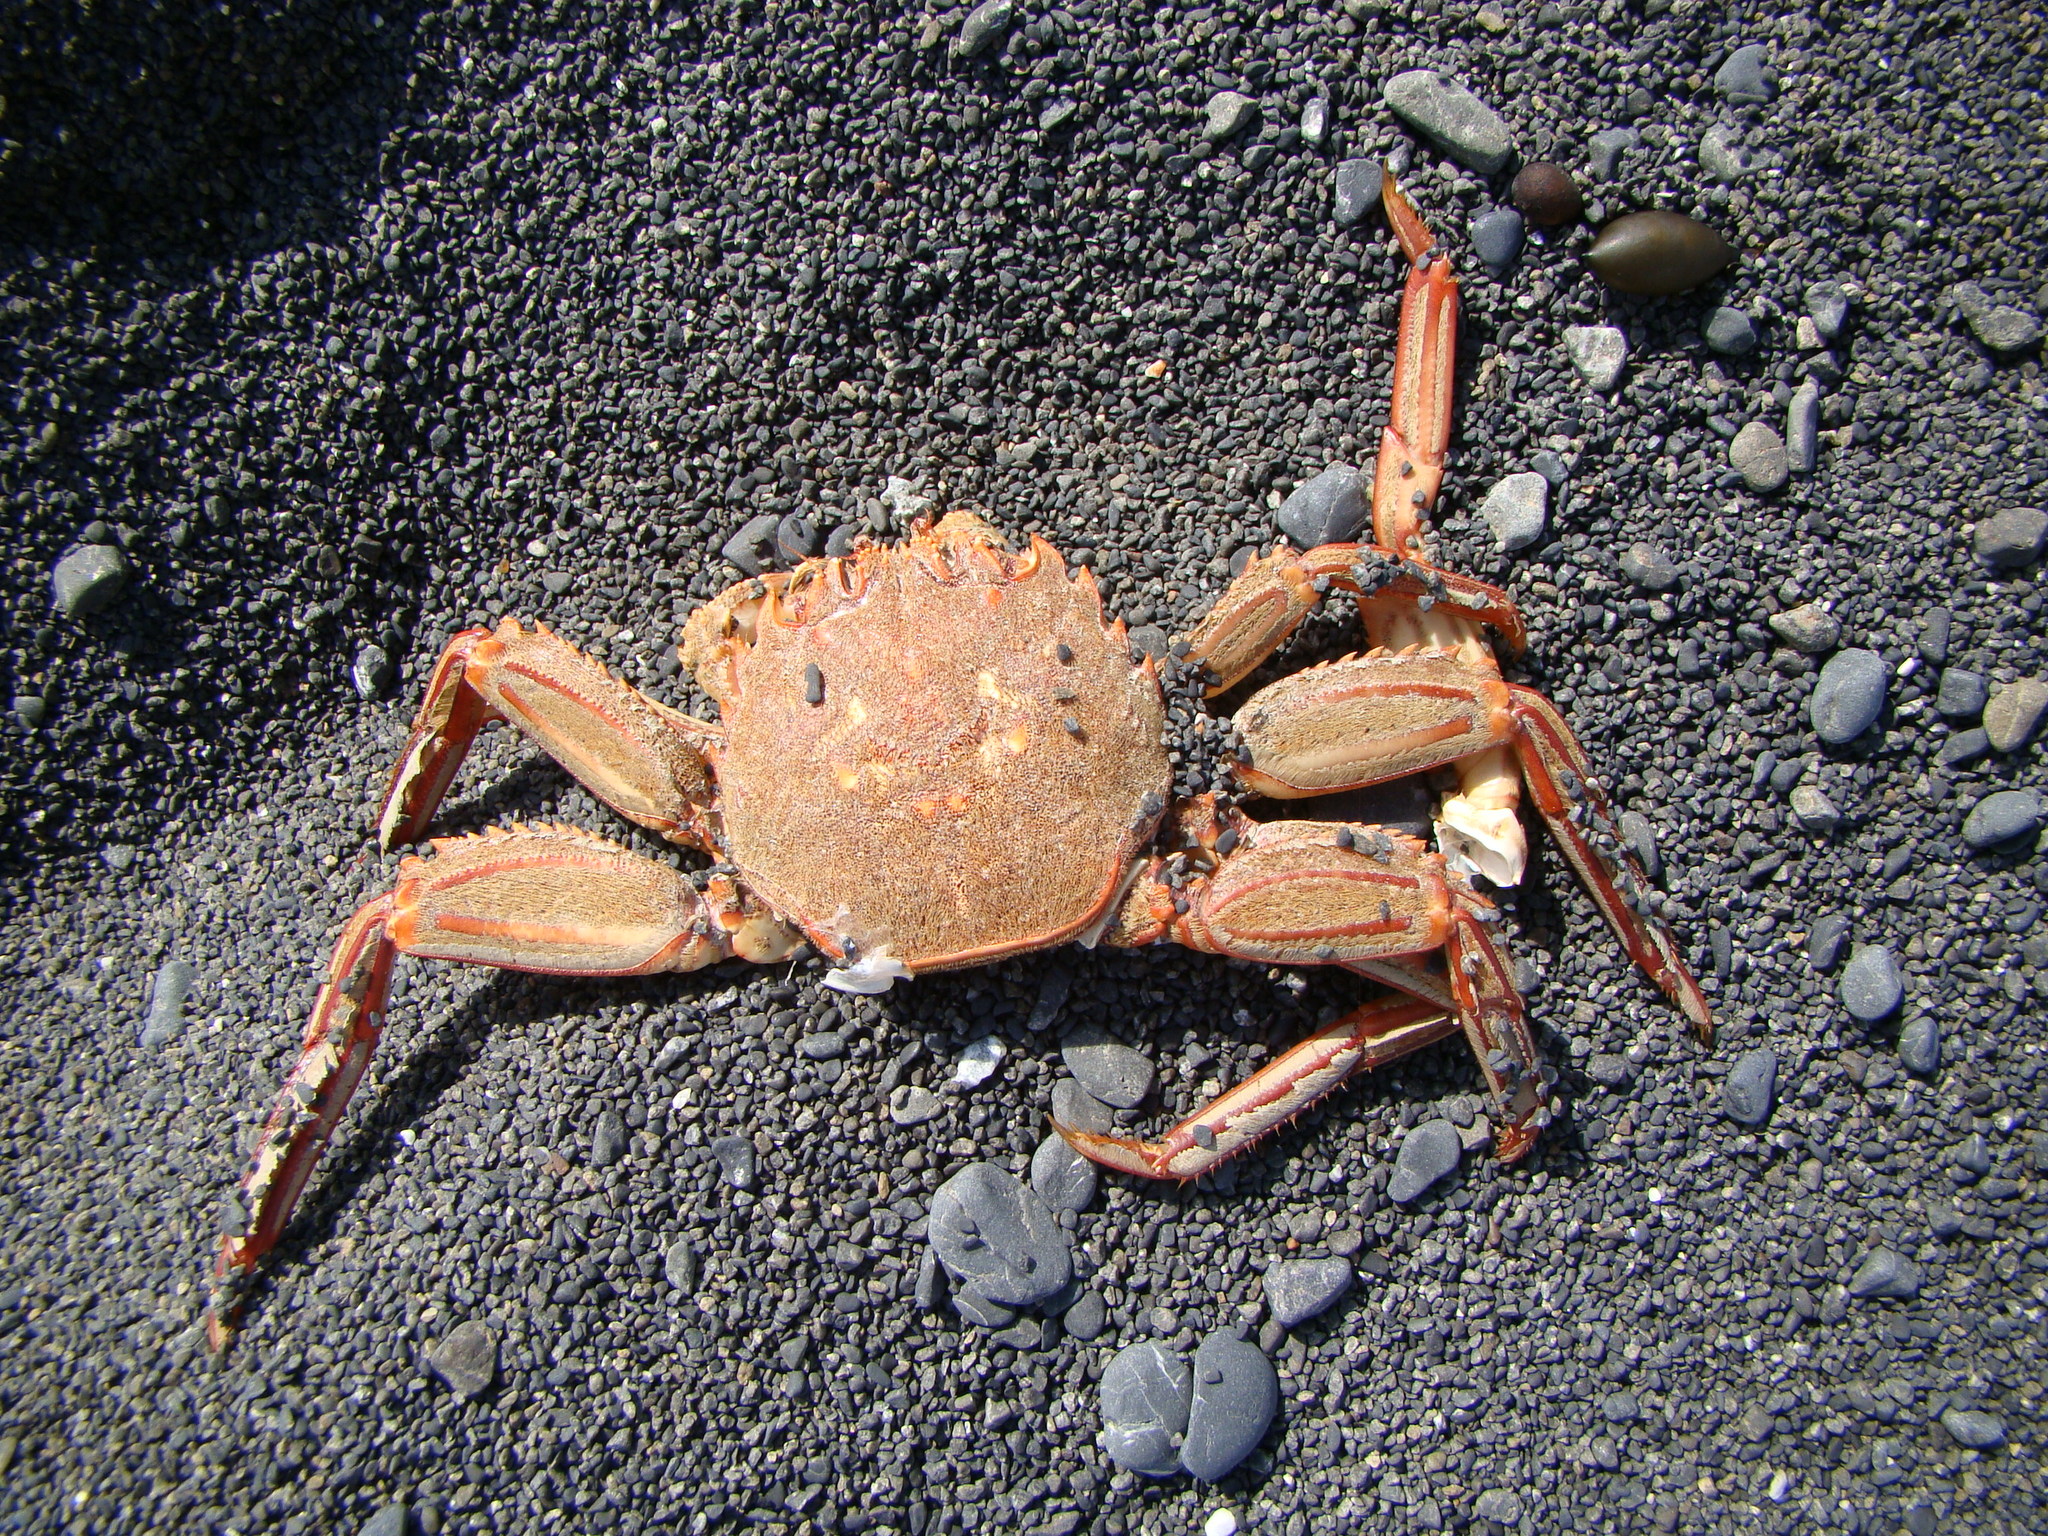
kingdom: Animalia
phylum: Arthropoda
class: Malacostraca
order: Decapoda
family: Plagusiidae
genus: Guinusia
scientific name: Guinusia chabrus
